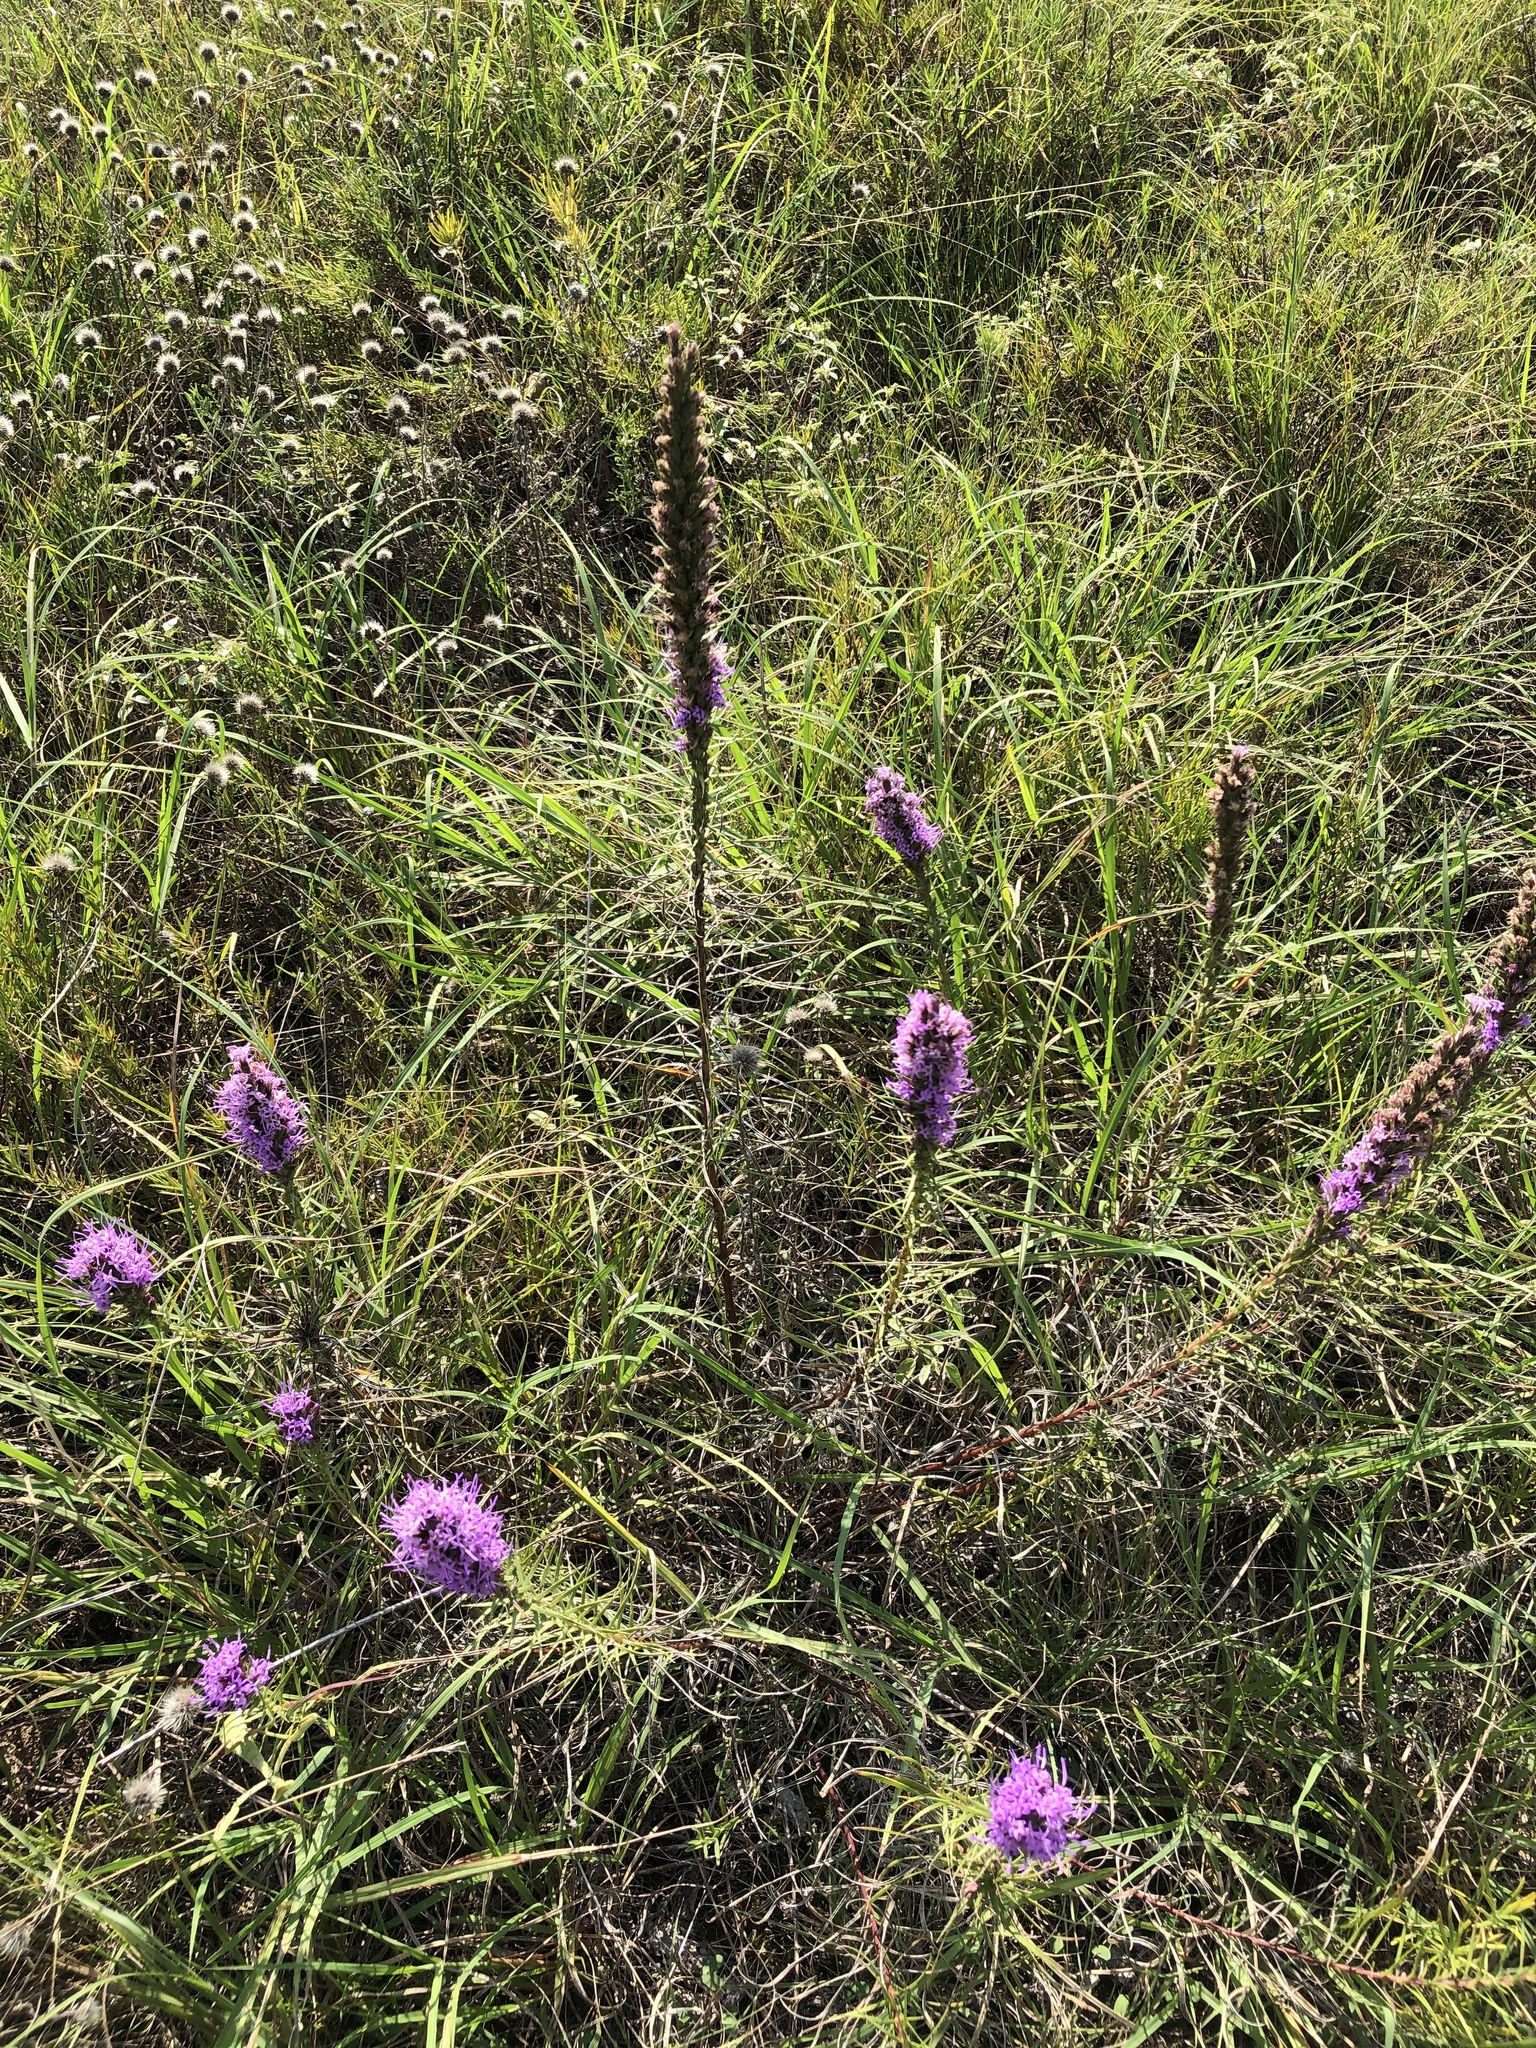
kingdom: Plantae
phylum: Tracheophyta
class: Magnoliopsida
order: Asterales
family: Asteraceae
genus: Liatris
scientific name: Liatris punctata
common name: Dotted gayfeather
